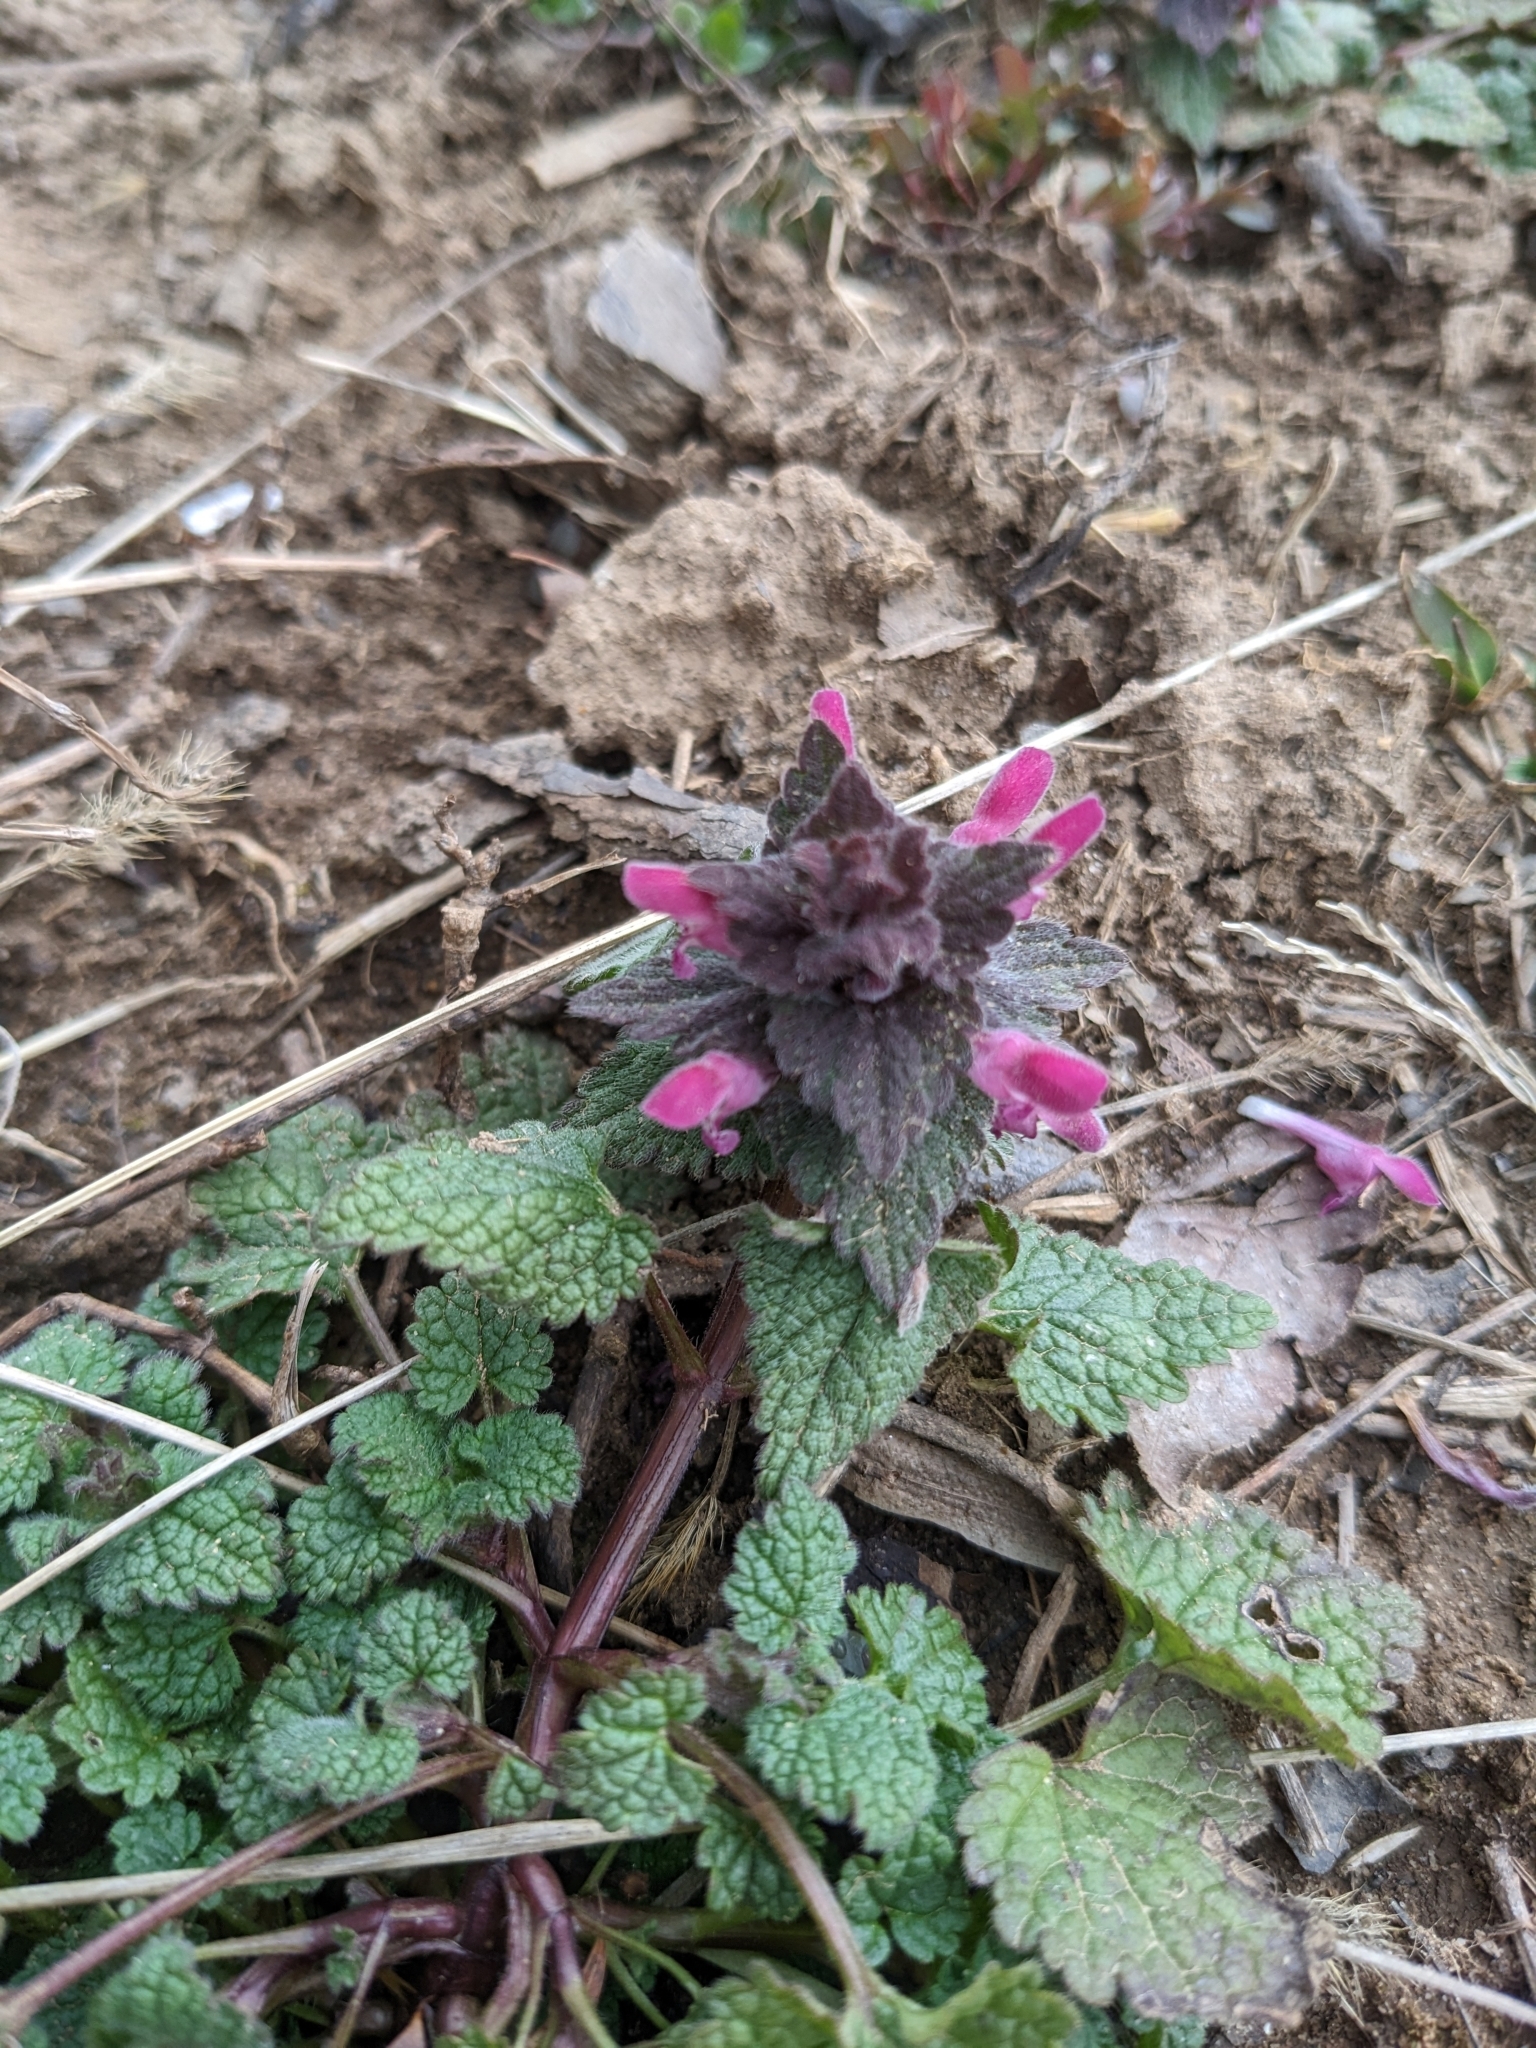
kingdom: Plantae
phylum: Tracheophyta
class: Magnoliopsida
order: Lamiales
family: Lamiaceae
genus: Lamium
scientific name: Lamium purpureum
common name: Red dead-nettle
